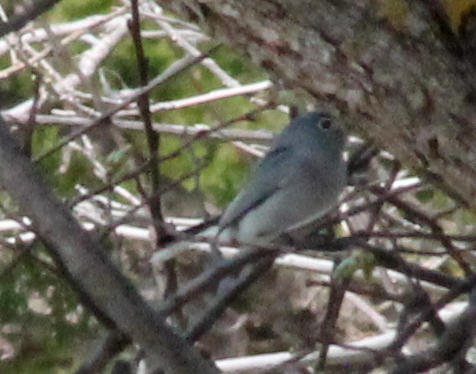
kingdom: Animalia
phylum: Chordata
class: Aves
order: Passeriformes
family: Polioptilidae
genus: Polioptila
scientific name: Polioptila caerulea
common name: Blue-gray gnatcatcher
